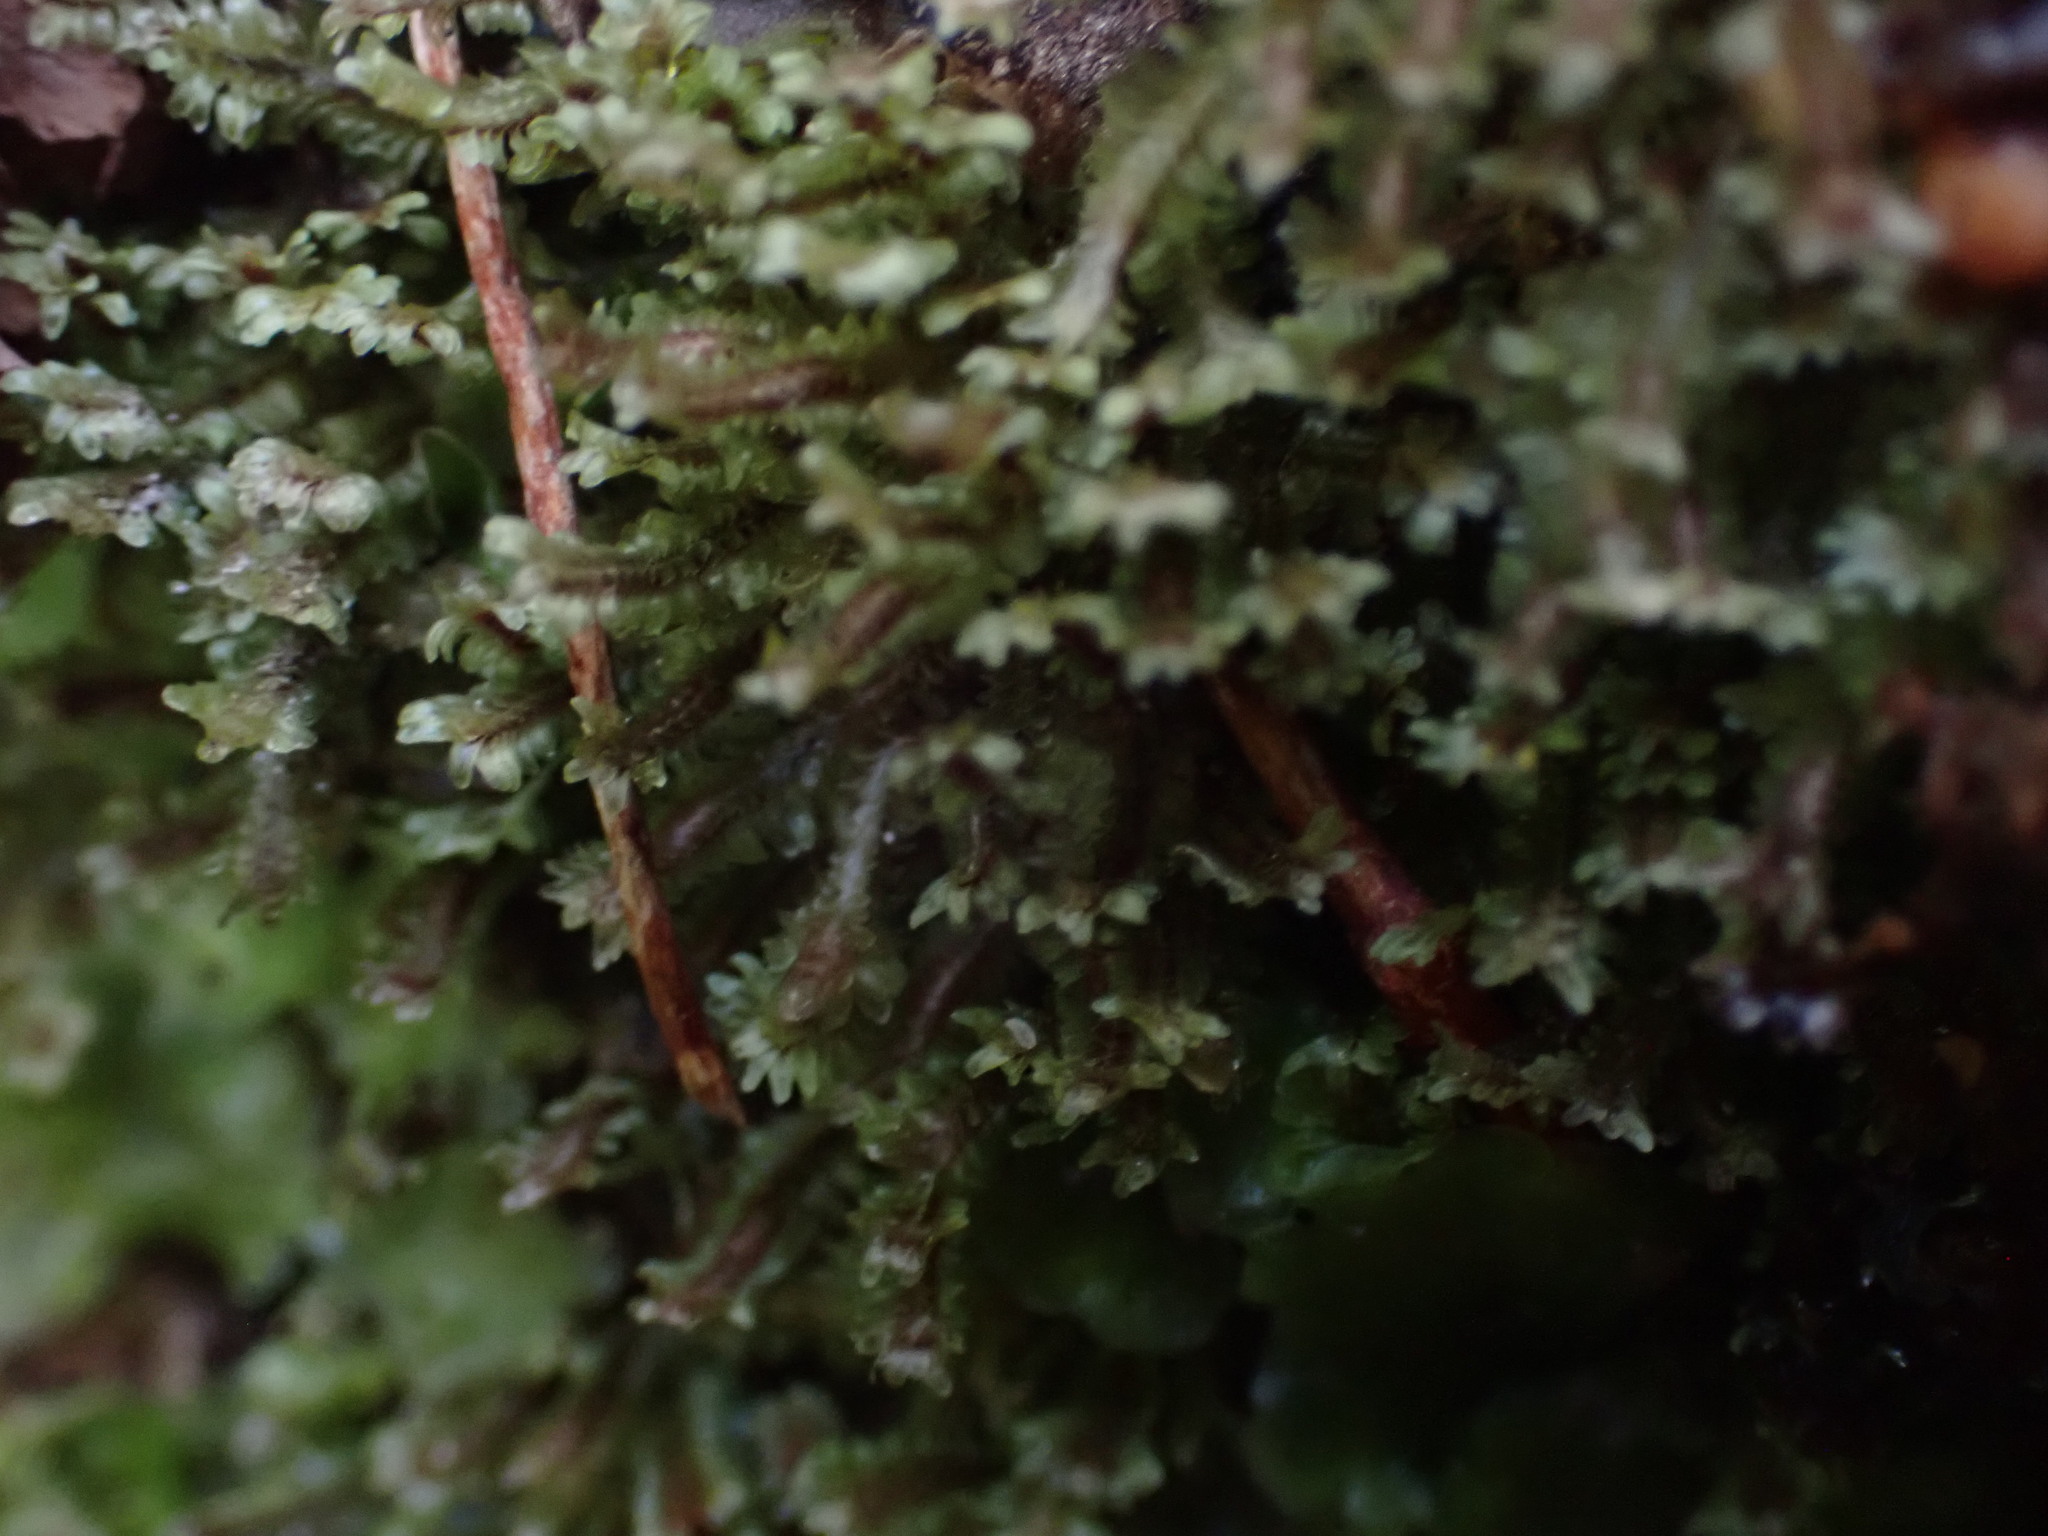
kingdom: Plantae
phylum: Marchantiophyta
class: Jungermanniopsida
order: Jungermanniales
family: Scapaniaceae
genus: Diplophyllum
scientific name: Diplophyllum albicans
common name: White earwort
